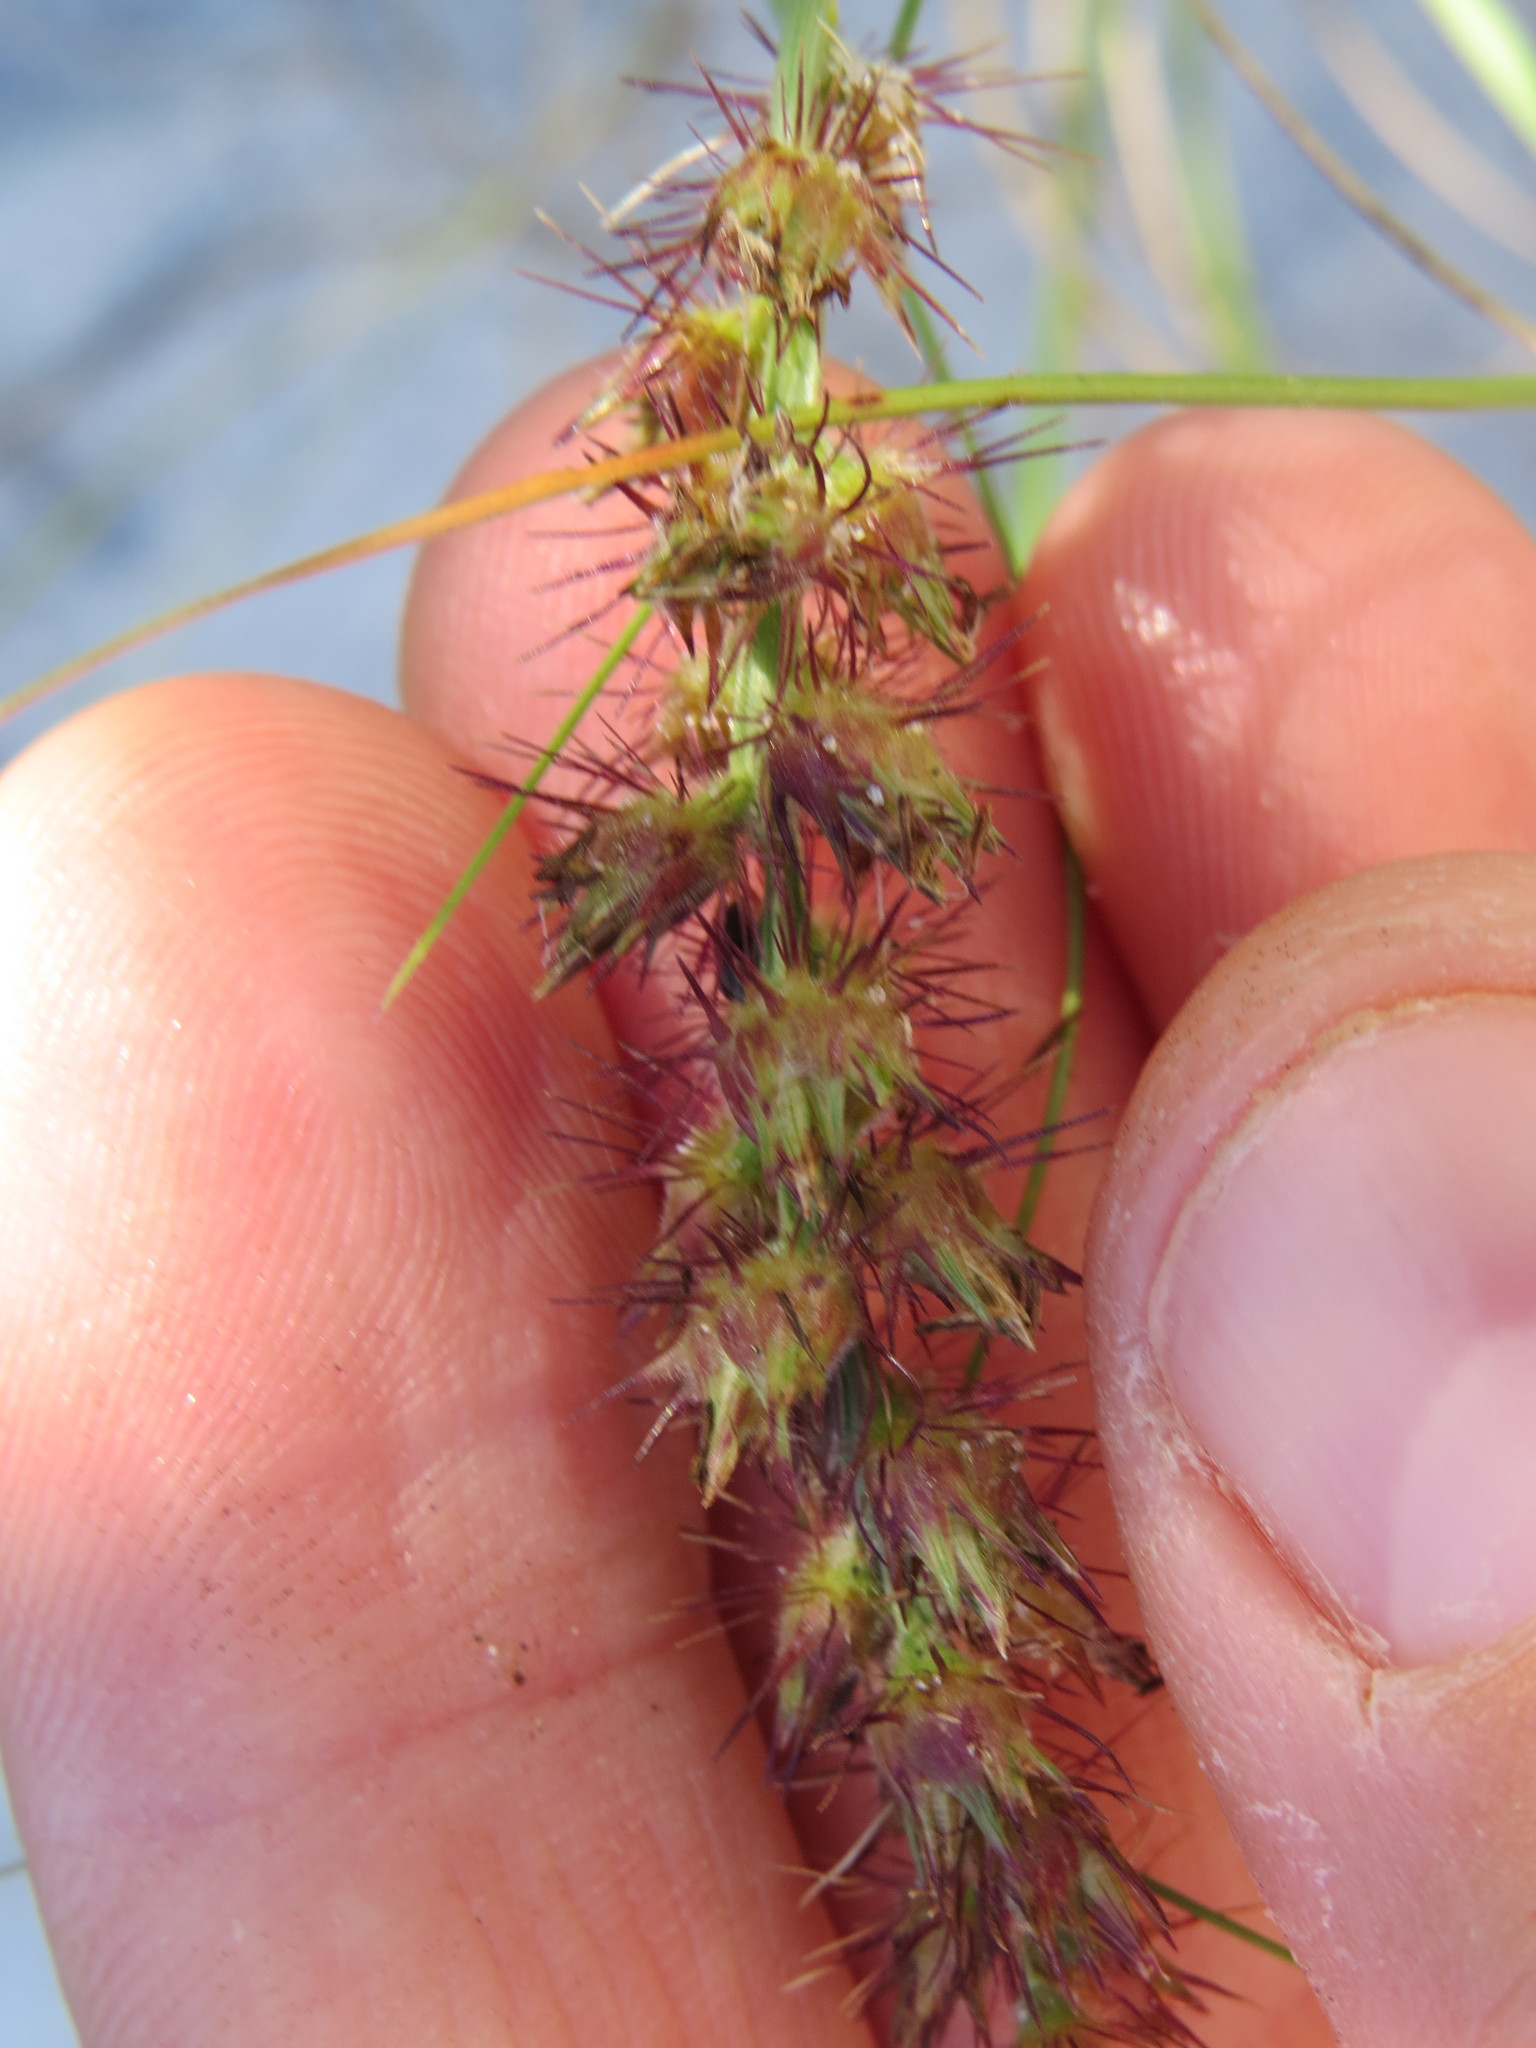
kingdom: Plantae
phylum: Tracheophyta
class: Liliopsida
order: Poales
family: Poaceae
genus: Cenchrus
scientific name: Cenchrus echinatus
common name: Southern sandbur
